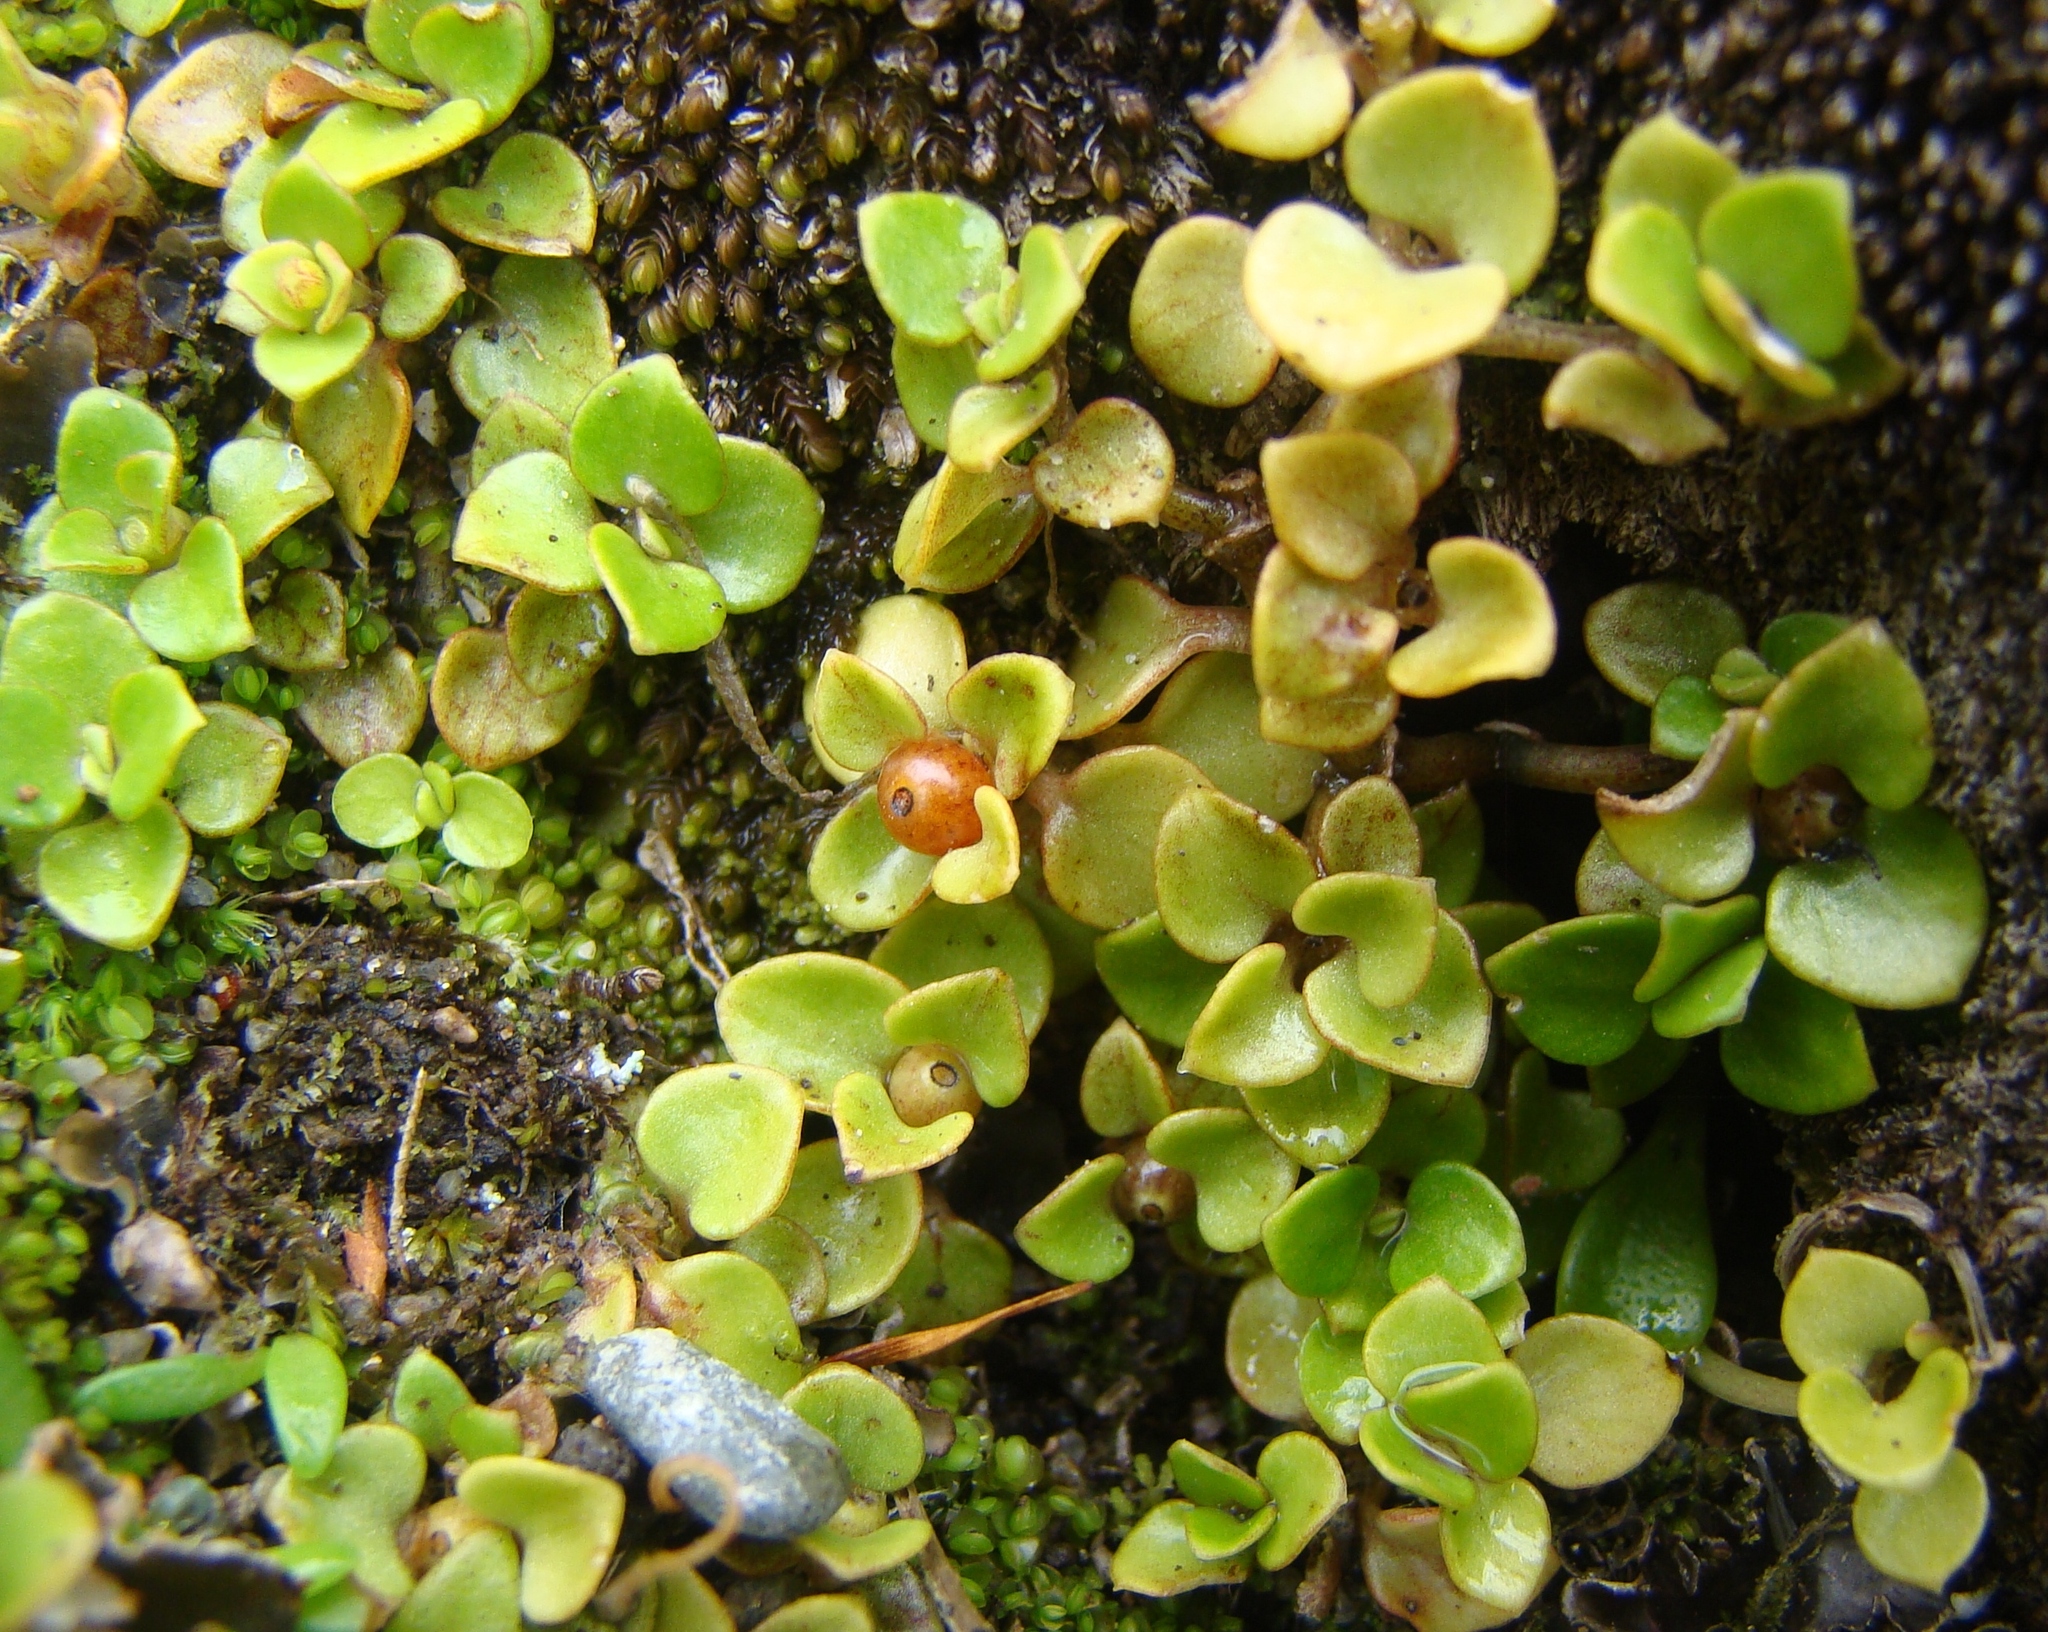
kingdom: Plantae
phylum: Tracheophyta
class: Magnoliopsida
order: Gentianales
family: Rubiaceae
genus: Nertera
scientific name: Nertera granadensis
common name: Beadplant
